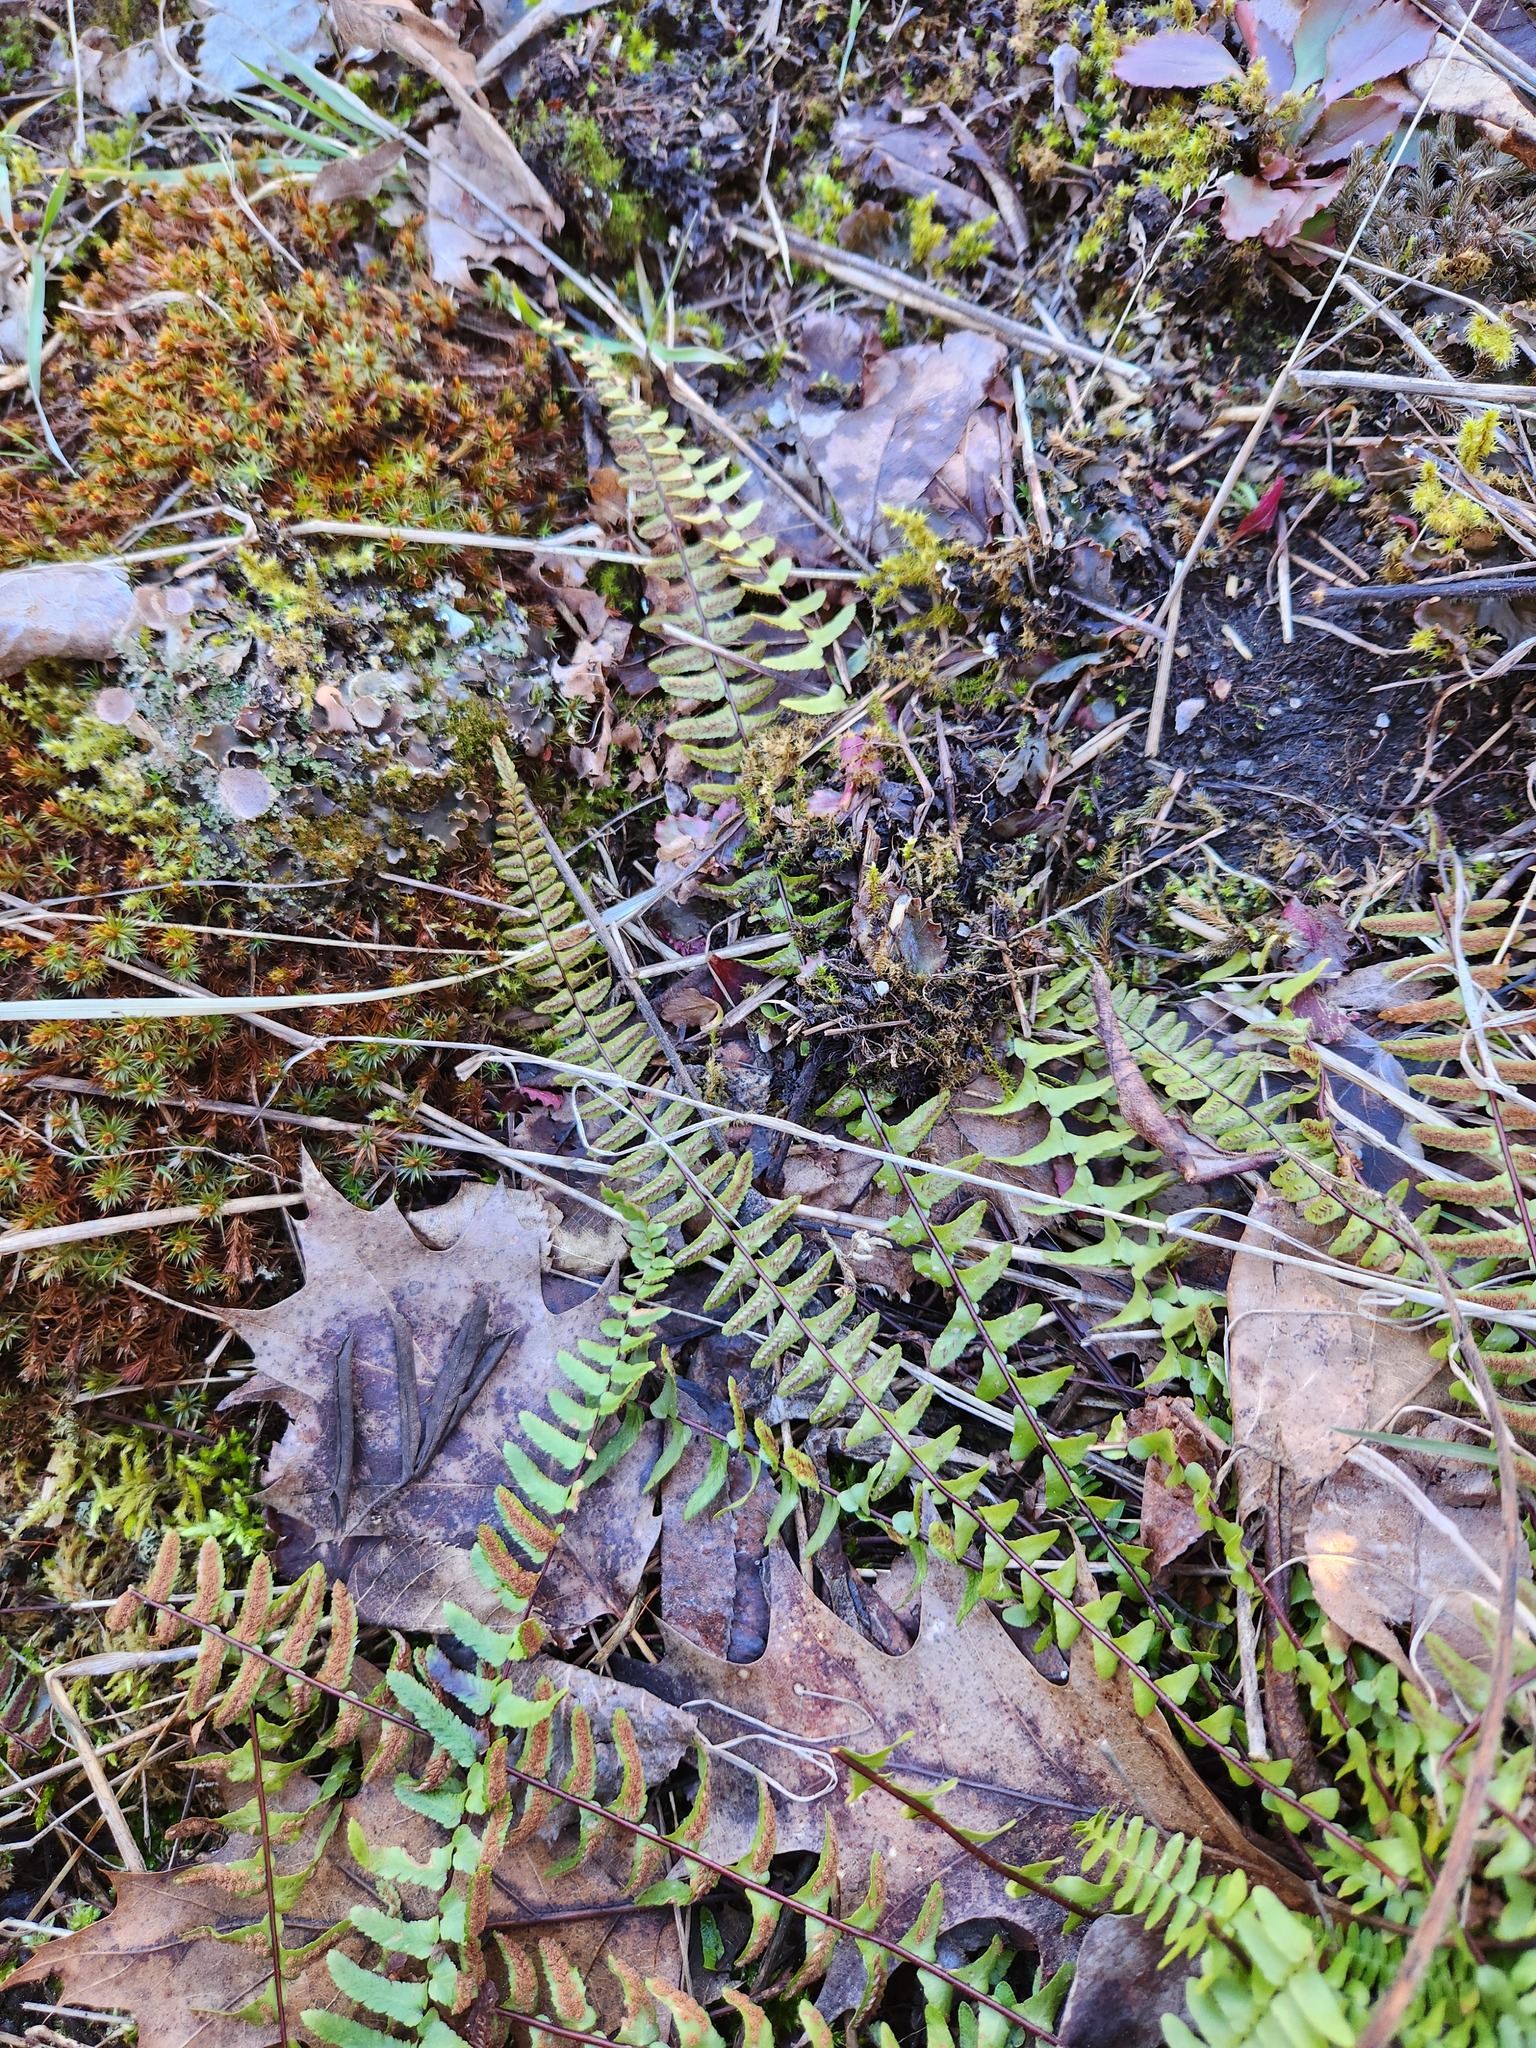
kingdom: Plantae
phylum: Tracheophyta
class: Polypodiopsida
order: Polypodiales
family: Aspleniaceae
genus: Asplenium
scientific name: Asplenium platyneuron
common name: Ebony spleenwort
